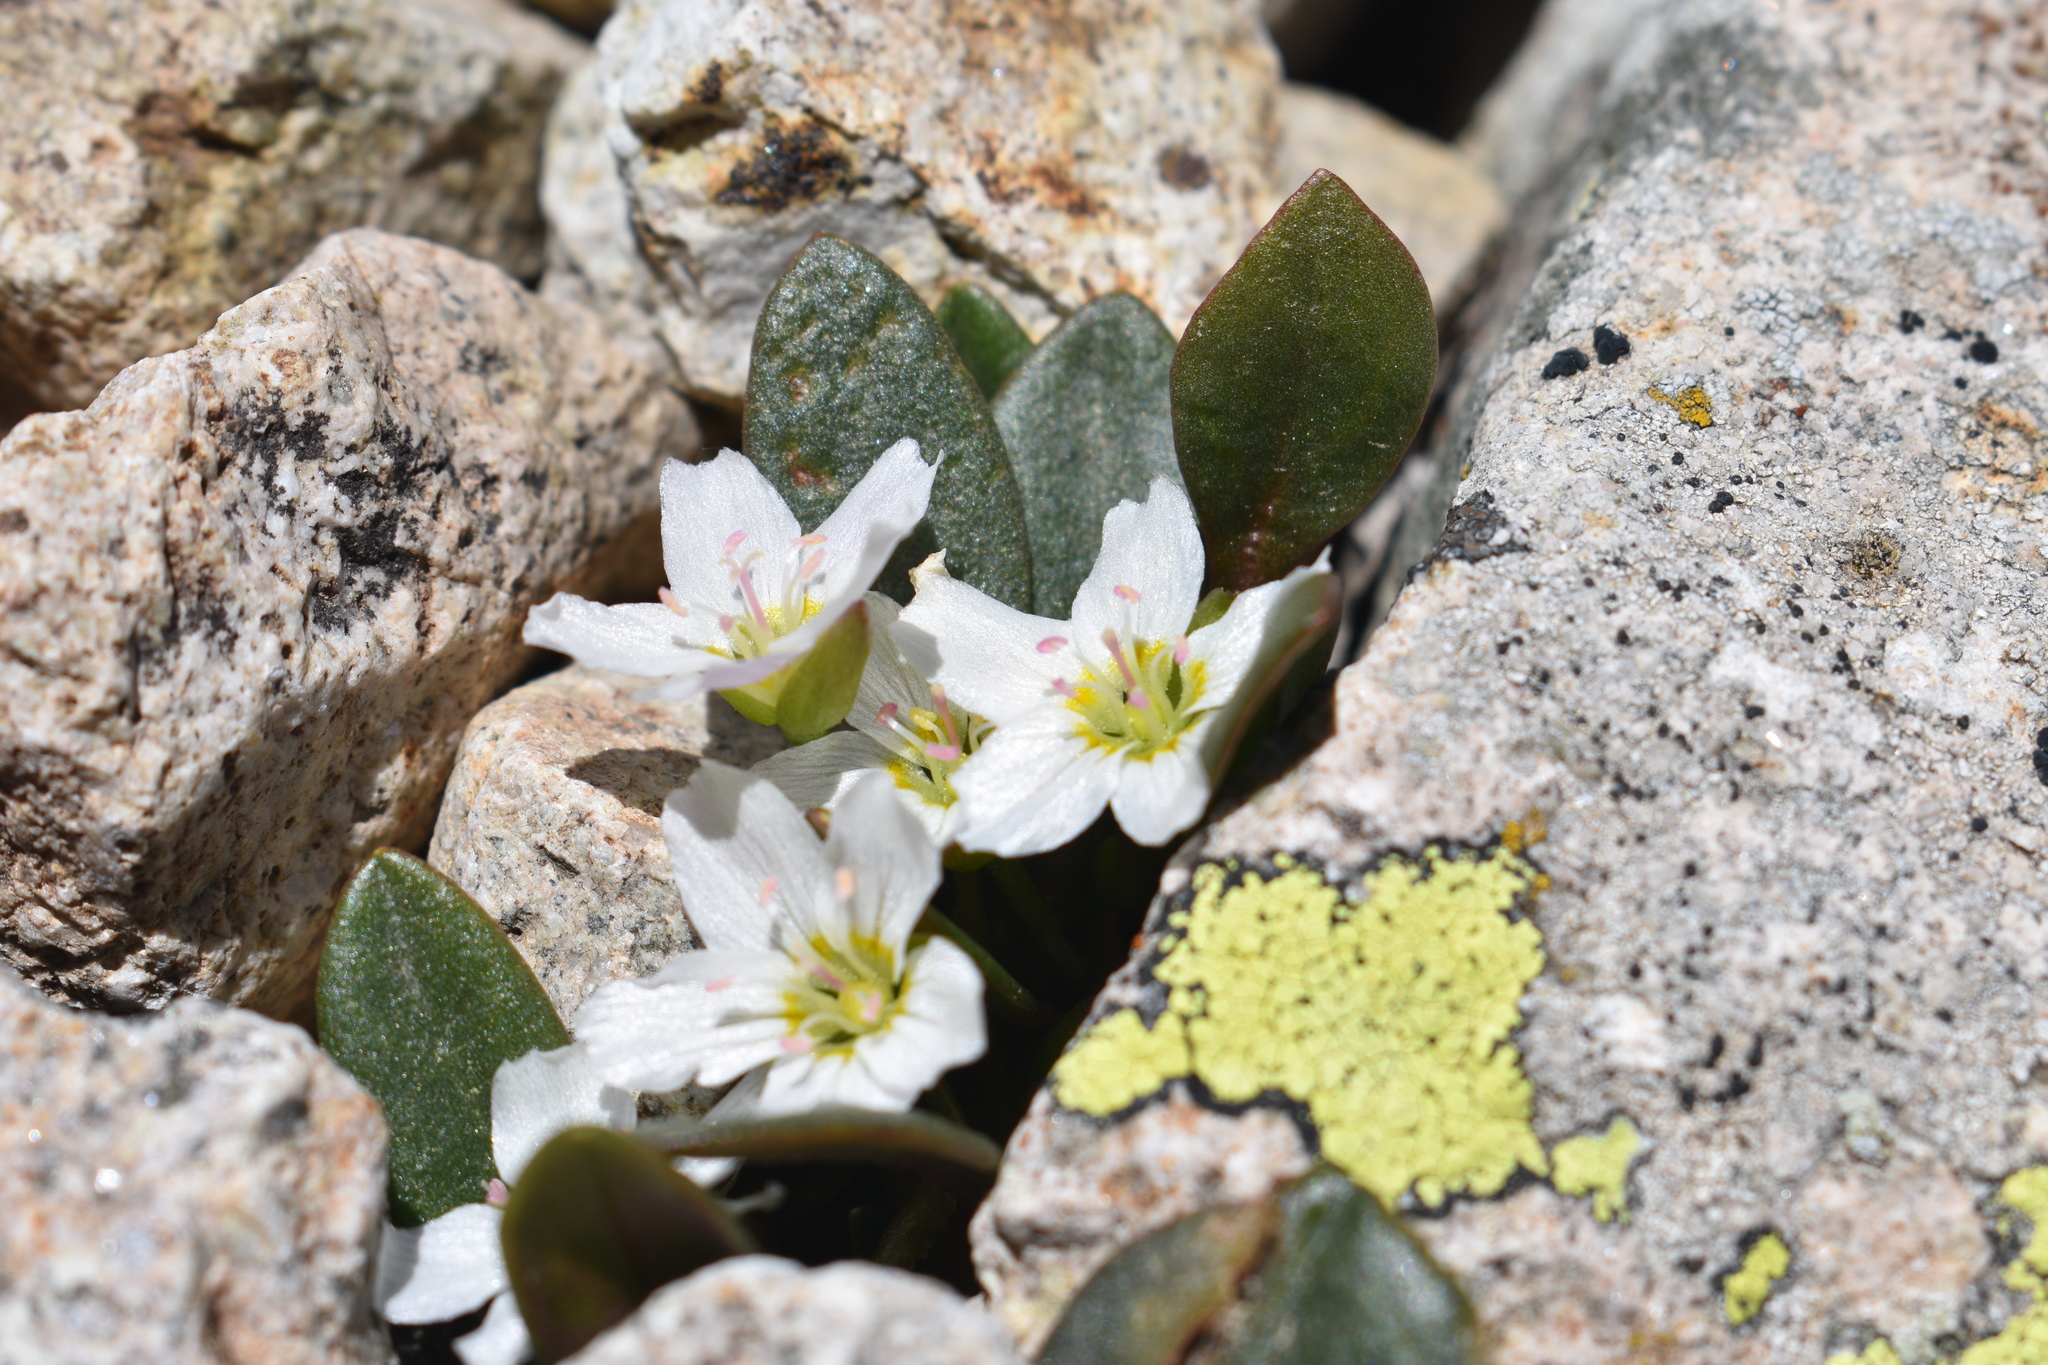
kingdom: Plantae
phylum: Tracheophyta
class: Magnoliopsida
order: Caryophyllales
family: Montiaceae
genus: Claytonia
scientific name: Claytonia megarhiza
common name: Alpine spring beauty
